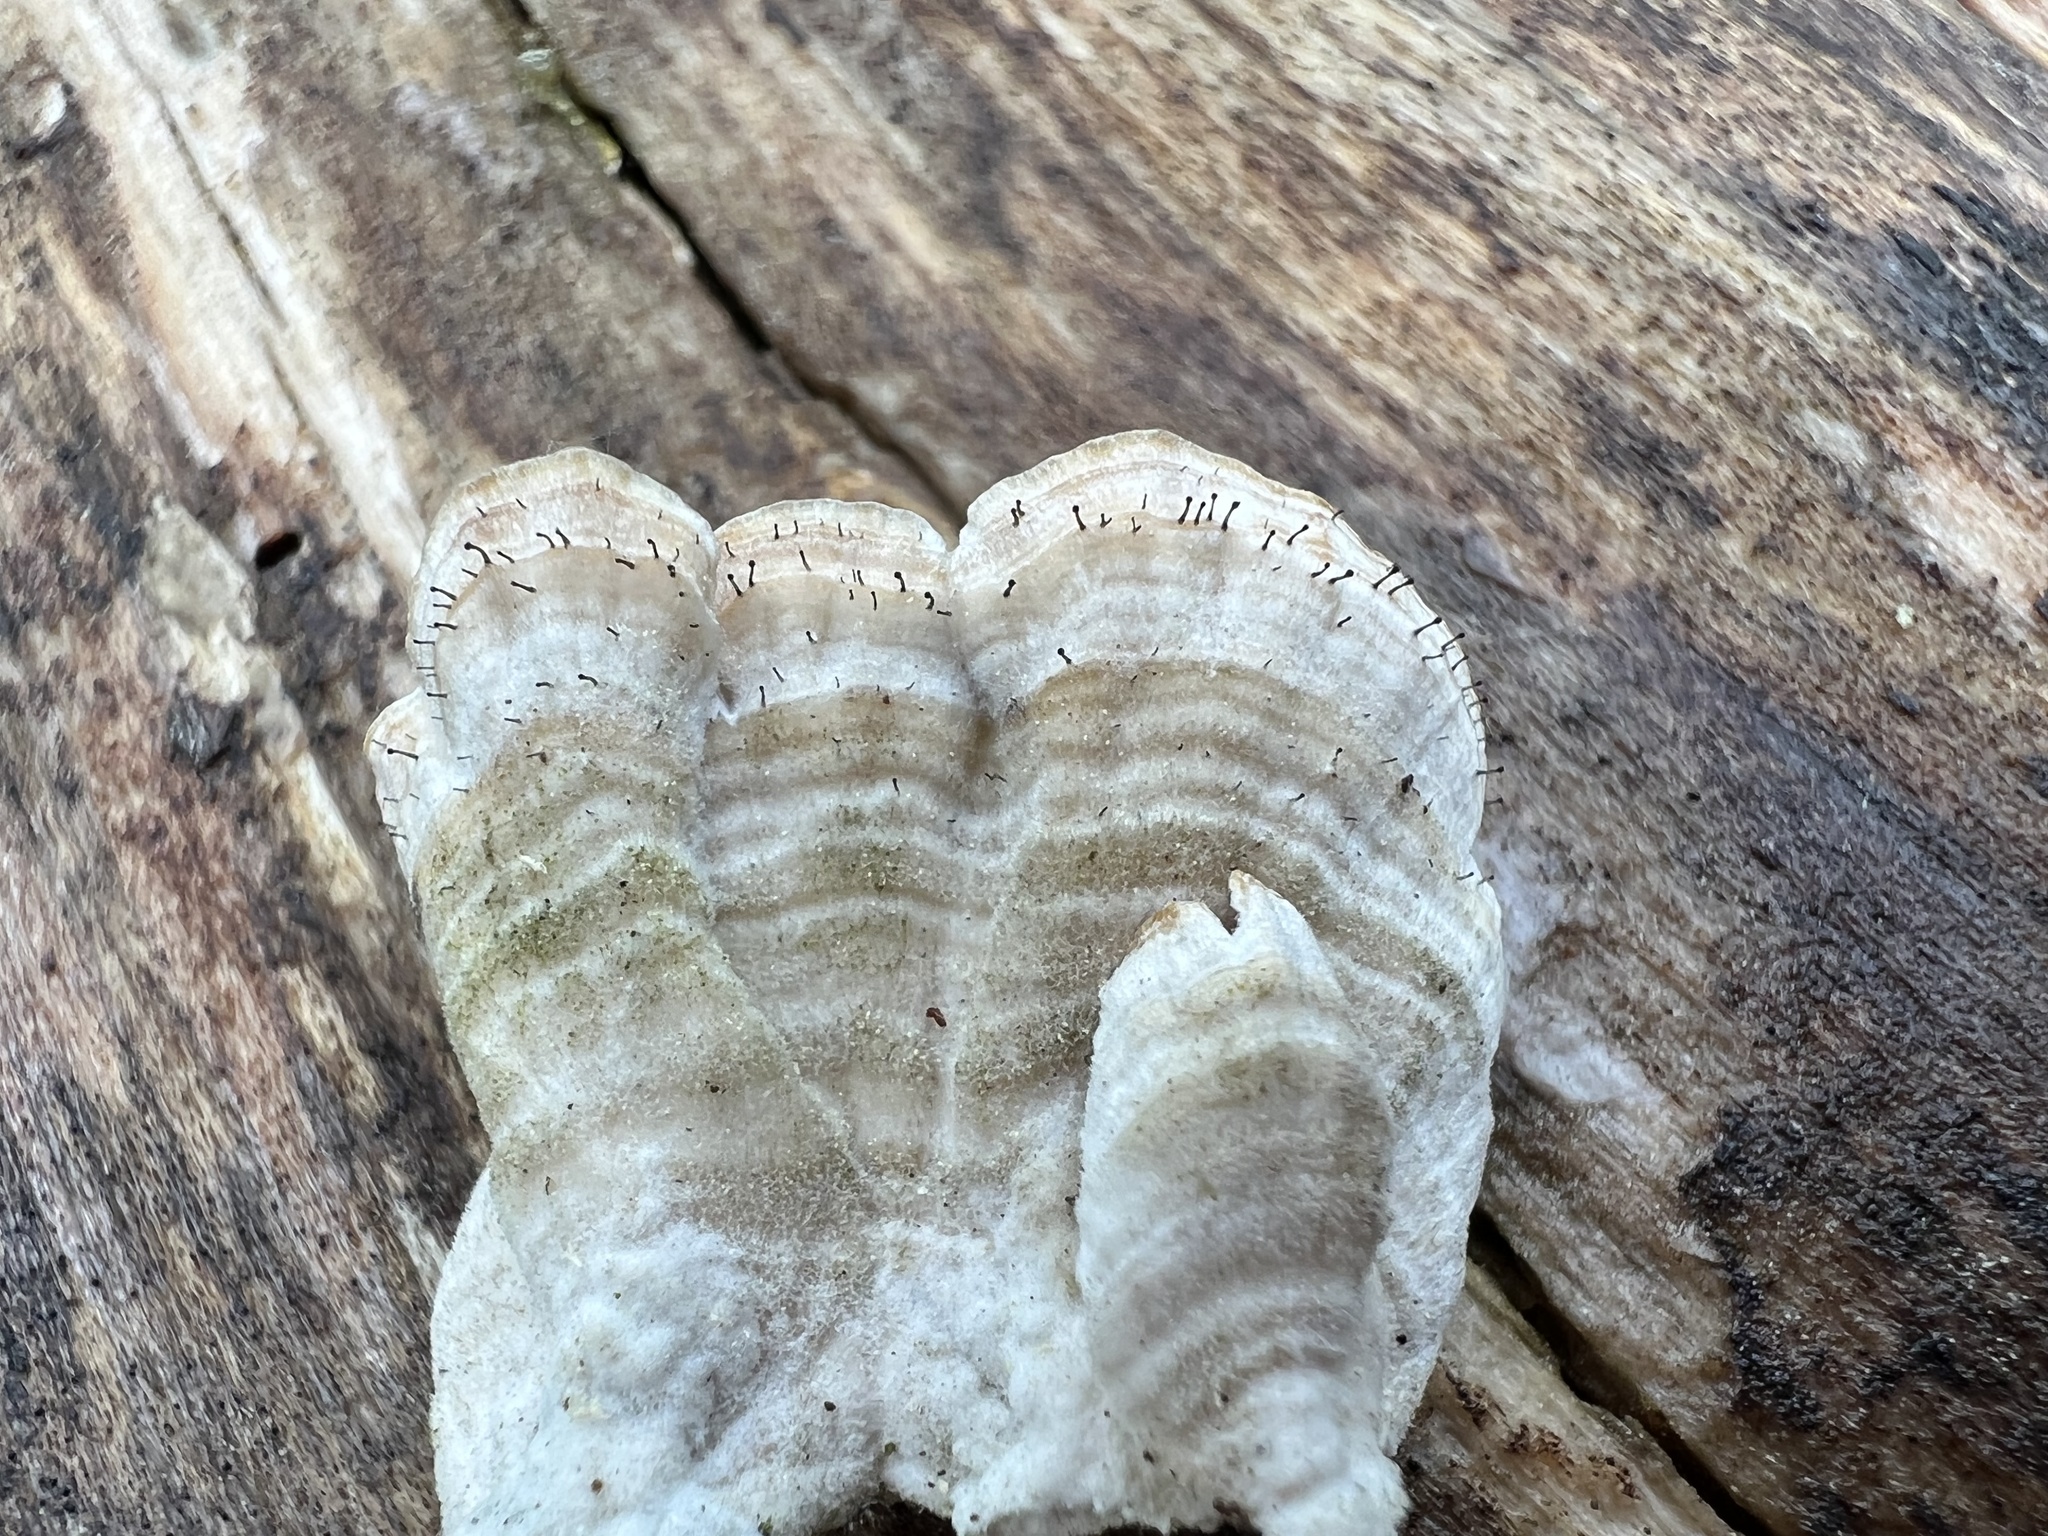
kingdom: Fungi
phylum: Ascomycota
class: Eurotiomycetes
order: Mycocaliciales
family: Mycocaliciaceae
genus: Phaeocalicium
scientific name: Phaeocalicium polyporaeum
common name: Fairy pins
